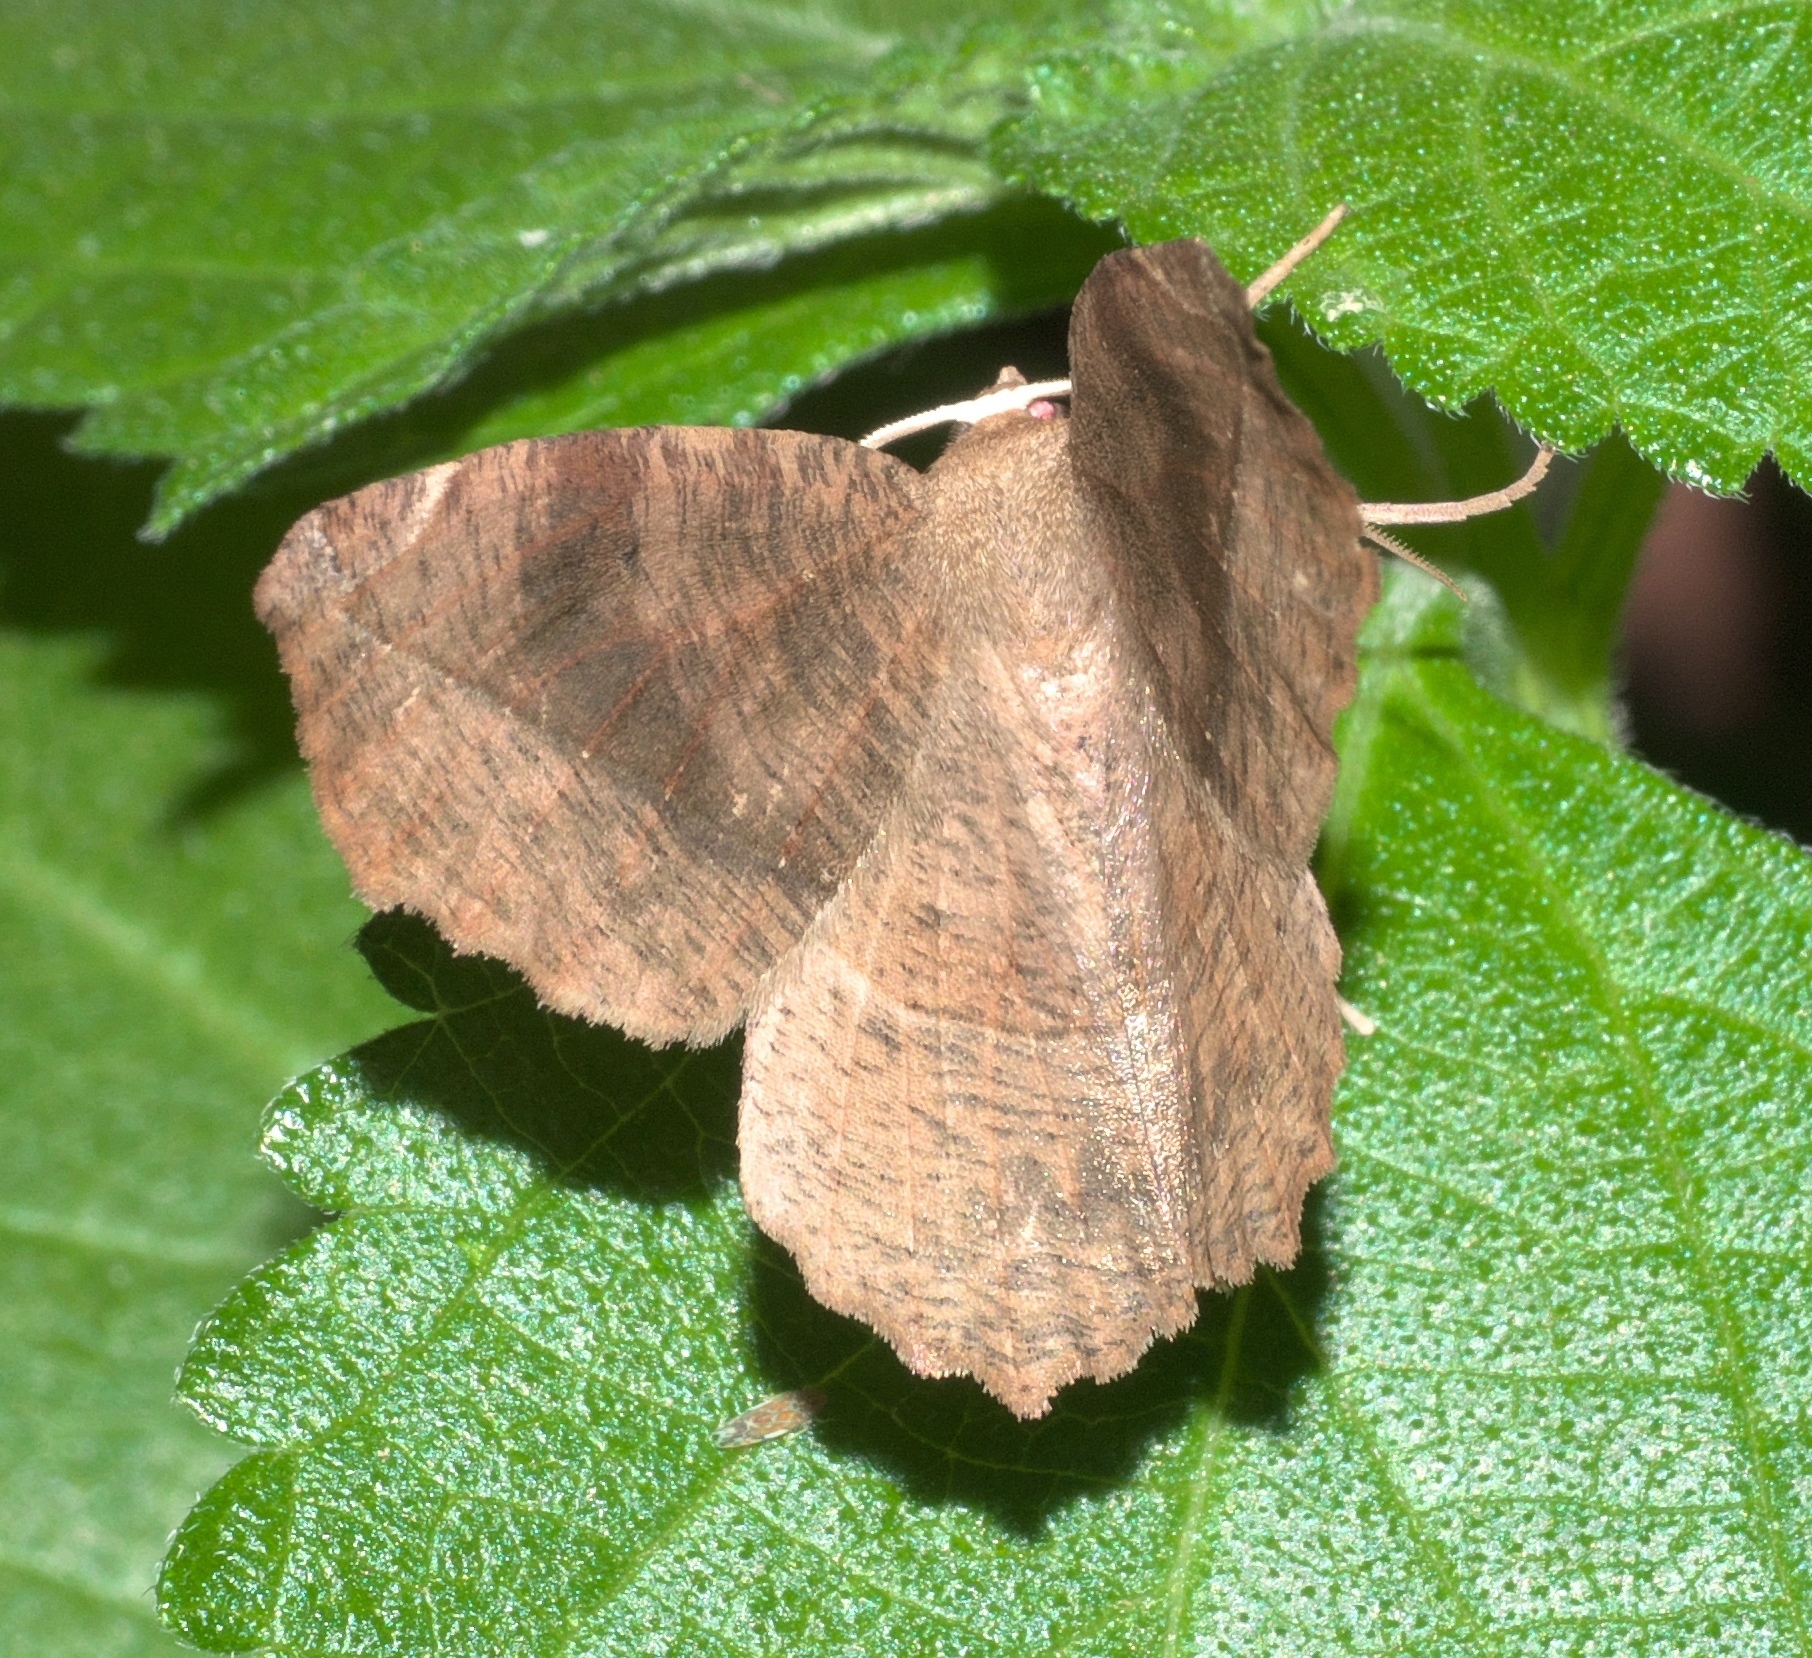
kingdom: Animalia
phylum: Arthropoda
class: Insecta
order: Lepidoptera
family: Geometridae
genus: Eutrapela
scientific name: Eutrapela clemataria
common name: Curved-toothed geometer
